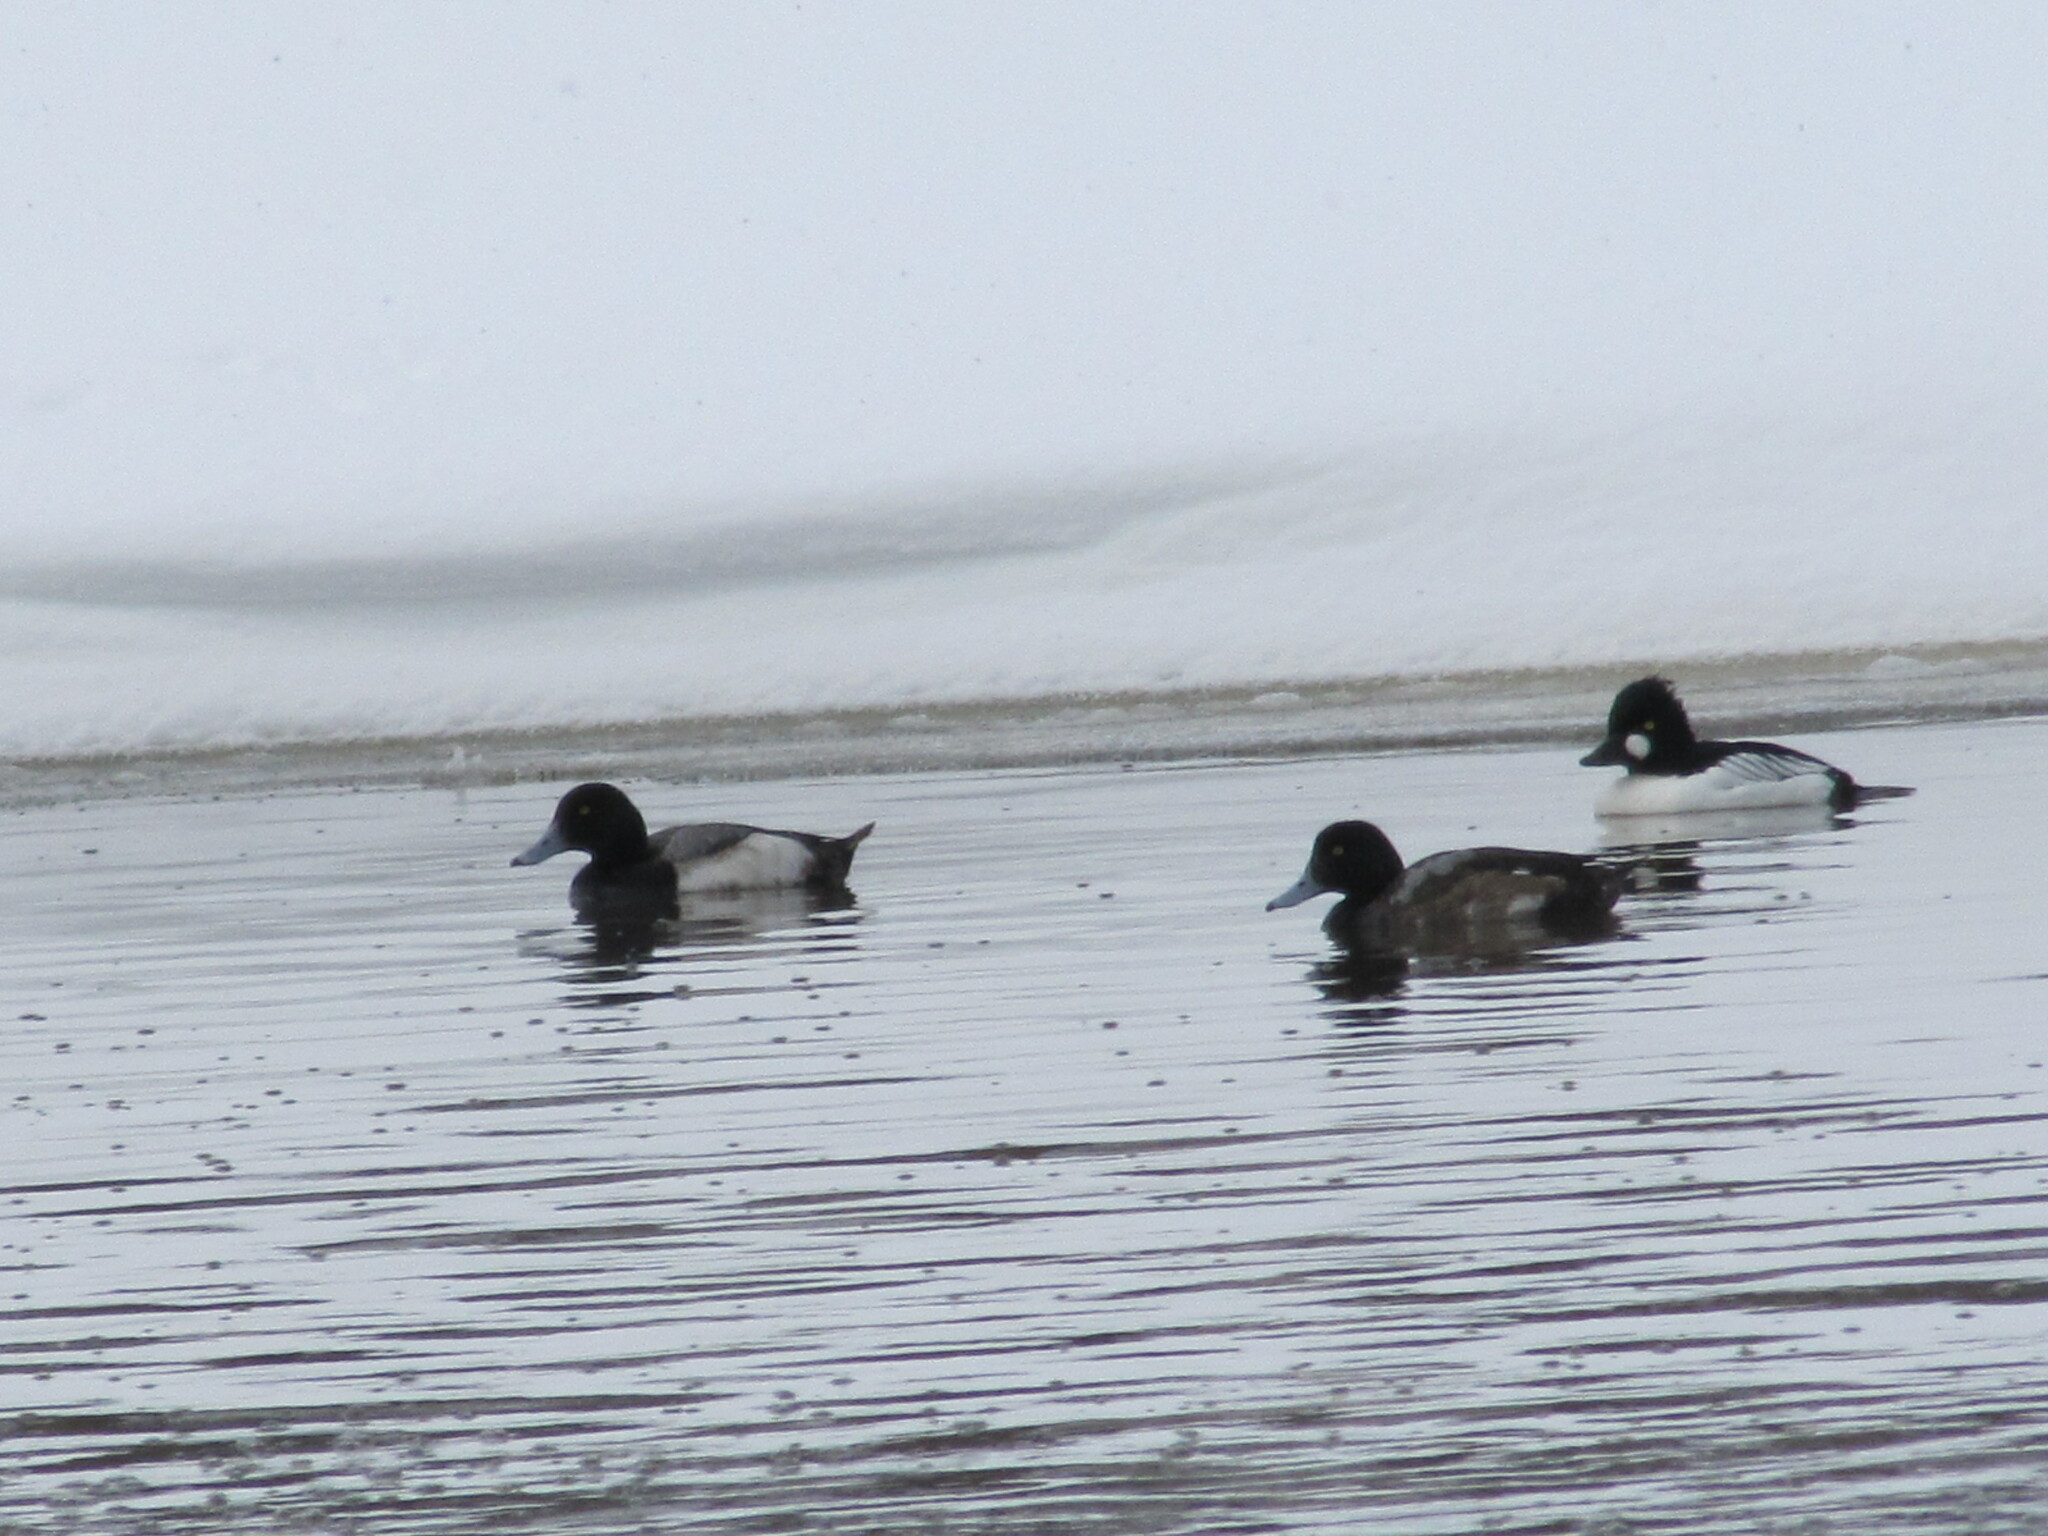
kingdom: Animalia
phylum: Chordata
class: Aves
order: Anseriformes
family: Anatidae
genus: Aythya
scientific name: Aythya marila
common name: Greater scaup
